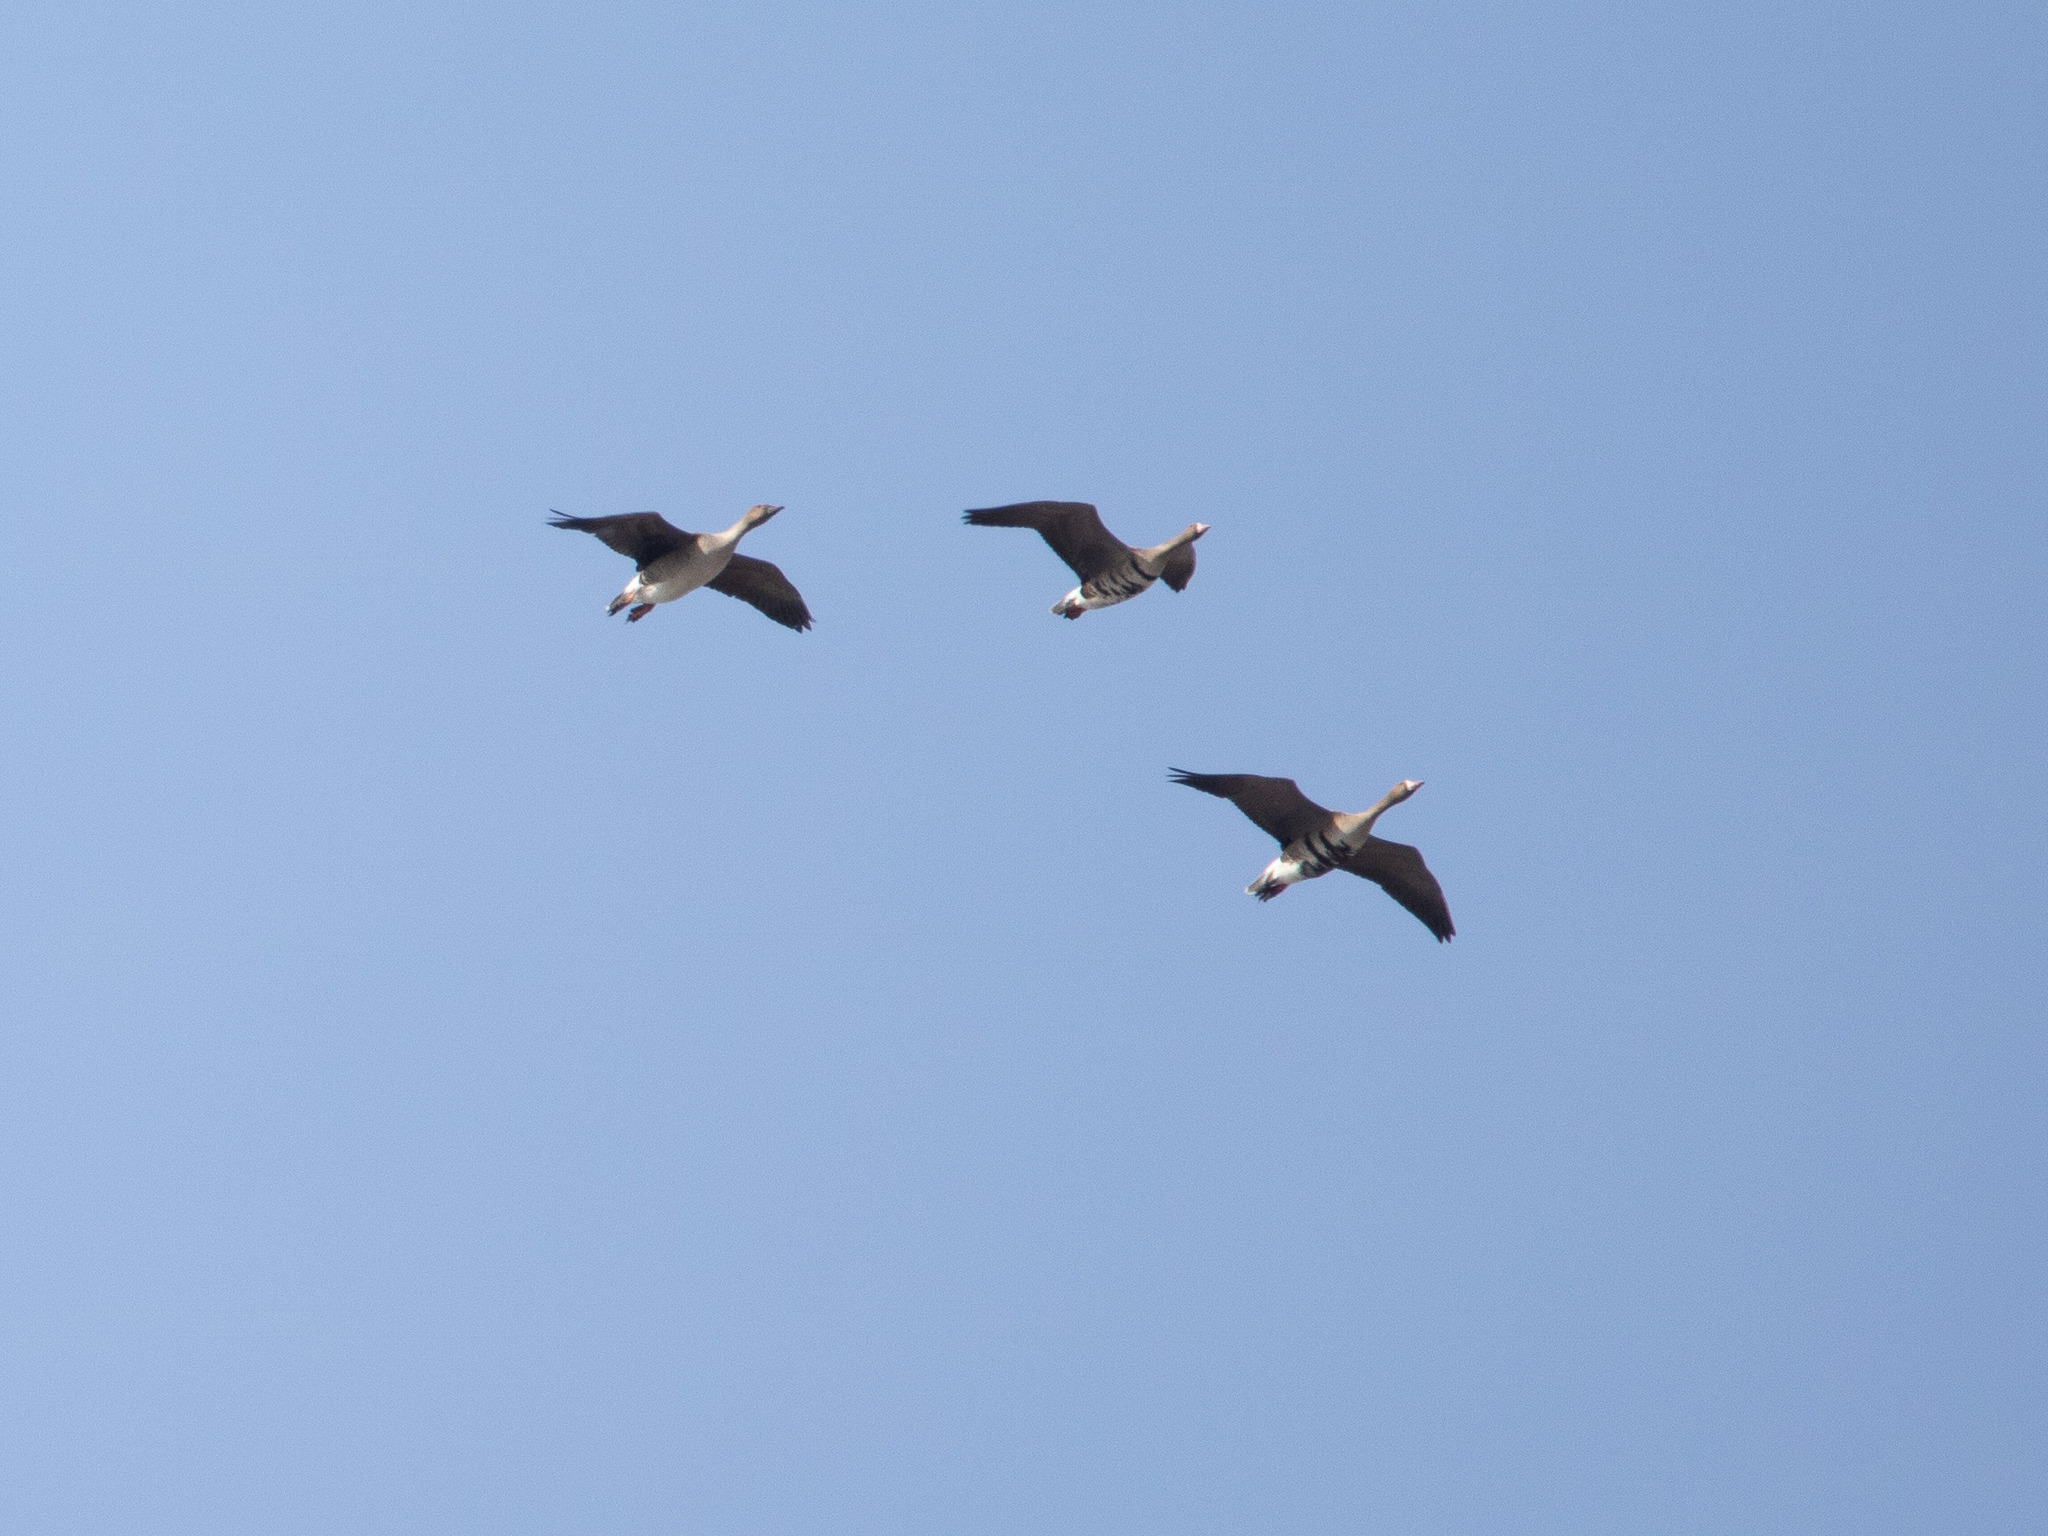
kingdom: Animalia
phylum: Chordata
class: Aves
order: Anseriformes
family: Anatidae
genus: Anser
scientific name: Anser albifrons
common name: Greater white-fronted goose
